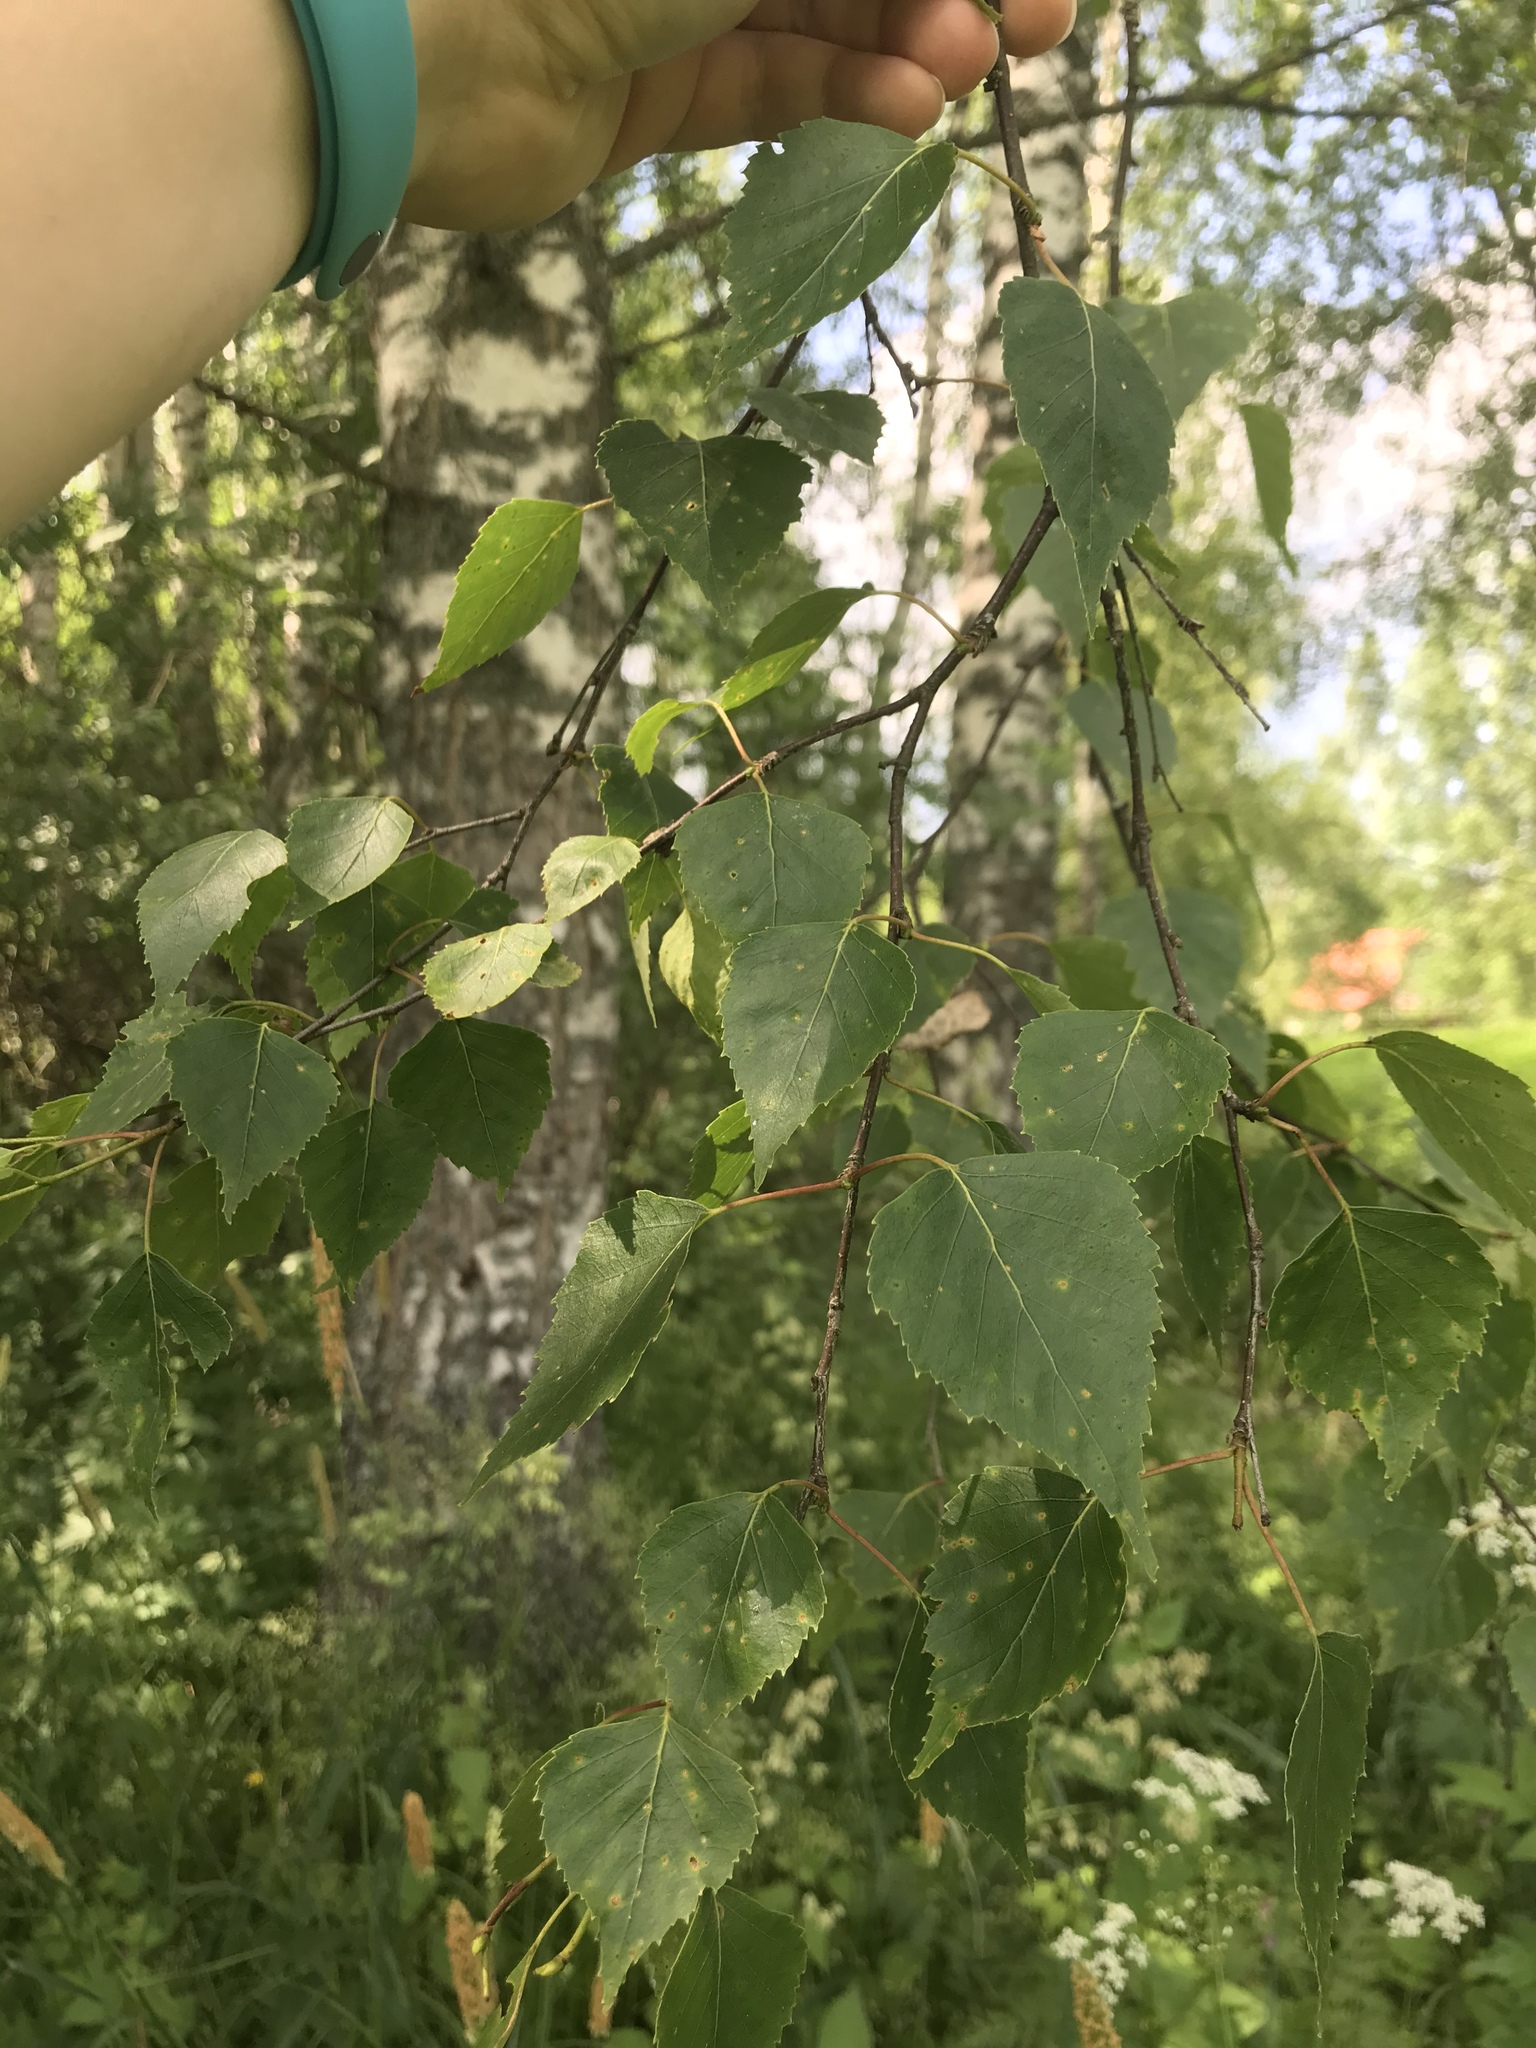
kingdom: Plantae
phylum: Tracheophyta
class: Magnoliopsida
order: Fagales
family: Betulaceae
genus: Betula
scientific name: Betula pendula
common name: Silver birch
